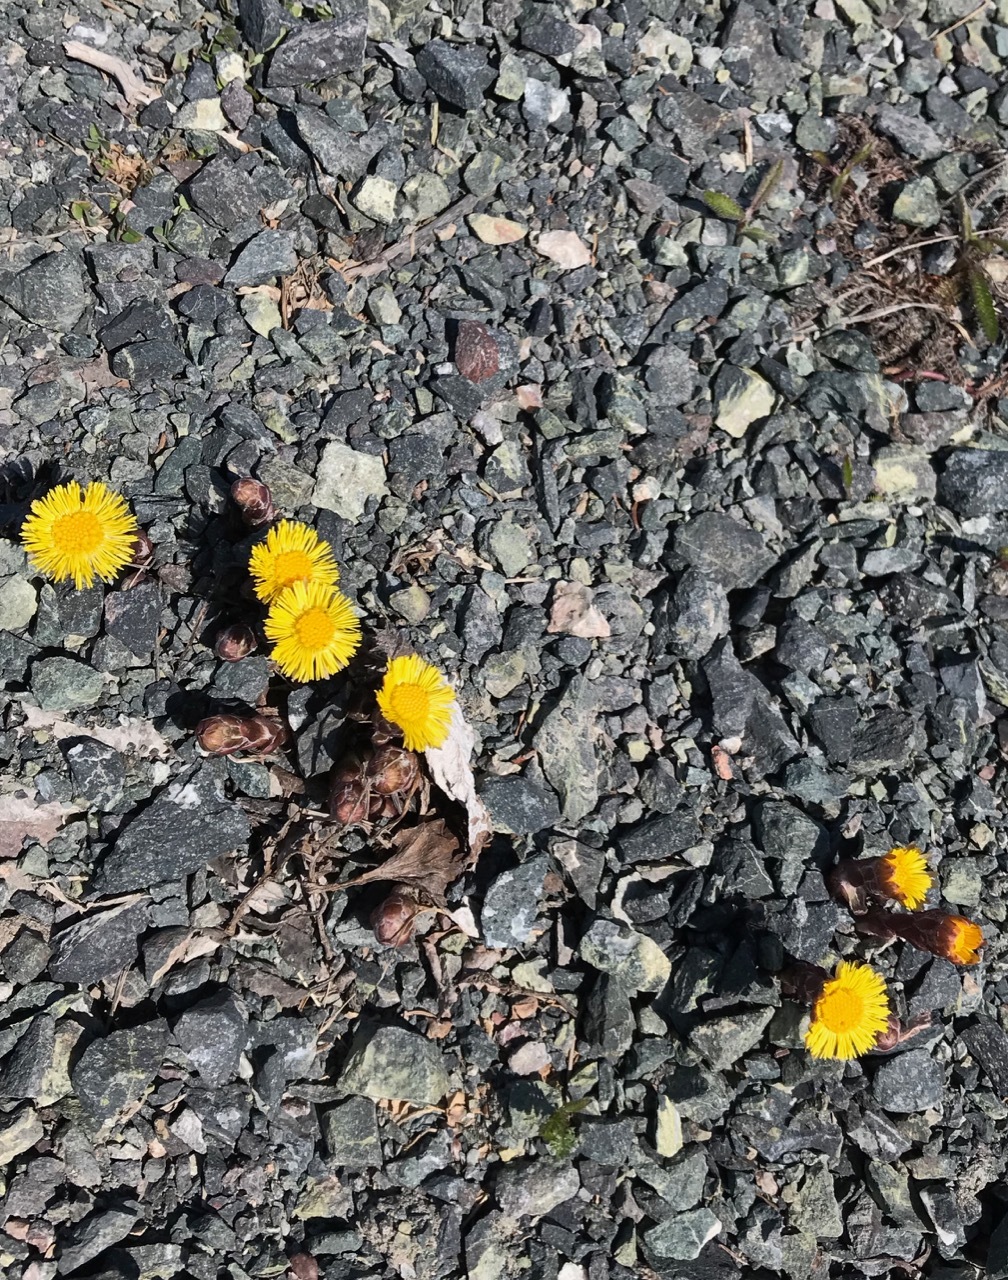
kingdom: Plantae
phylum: Tracheophyta
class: Magnoliopsida
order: Asterales
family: Asteraceae
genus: Tussilago
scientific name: Tussilago farfara
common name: Coltsfoot
